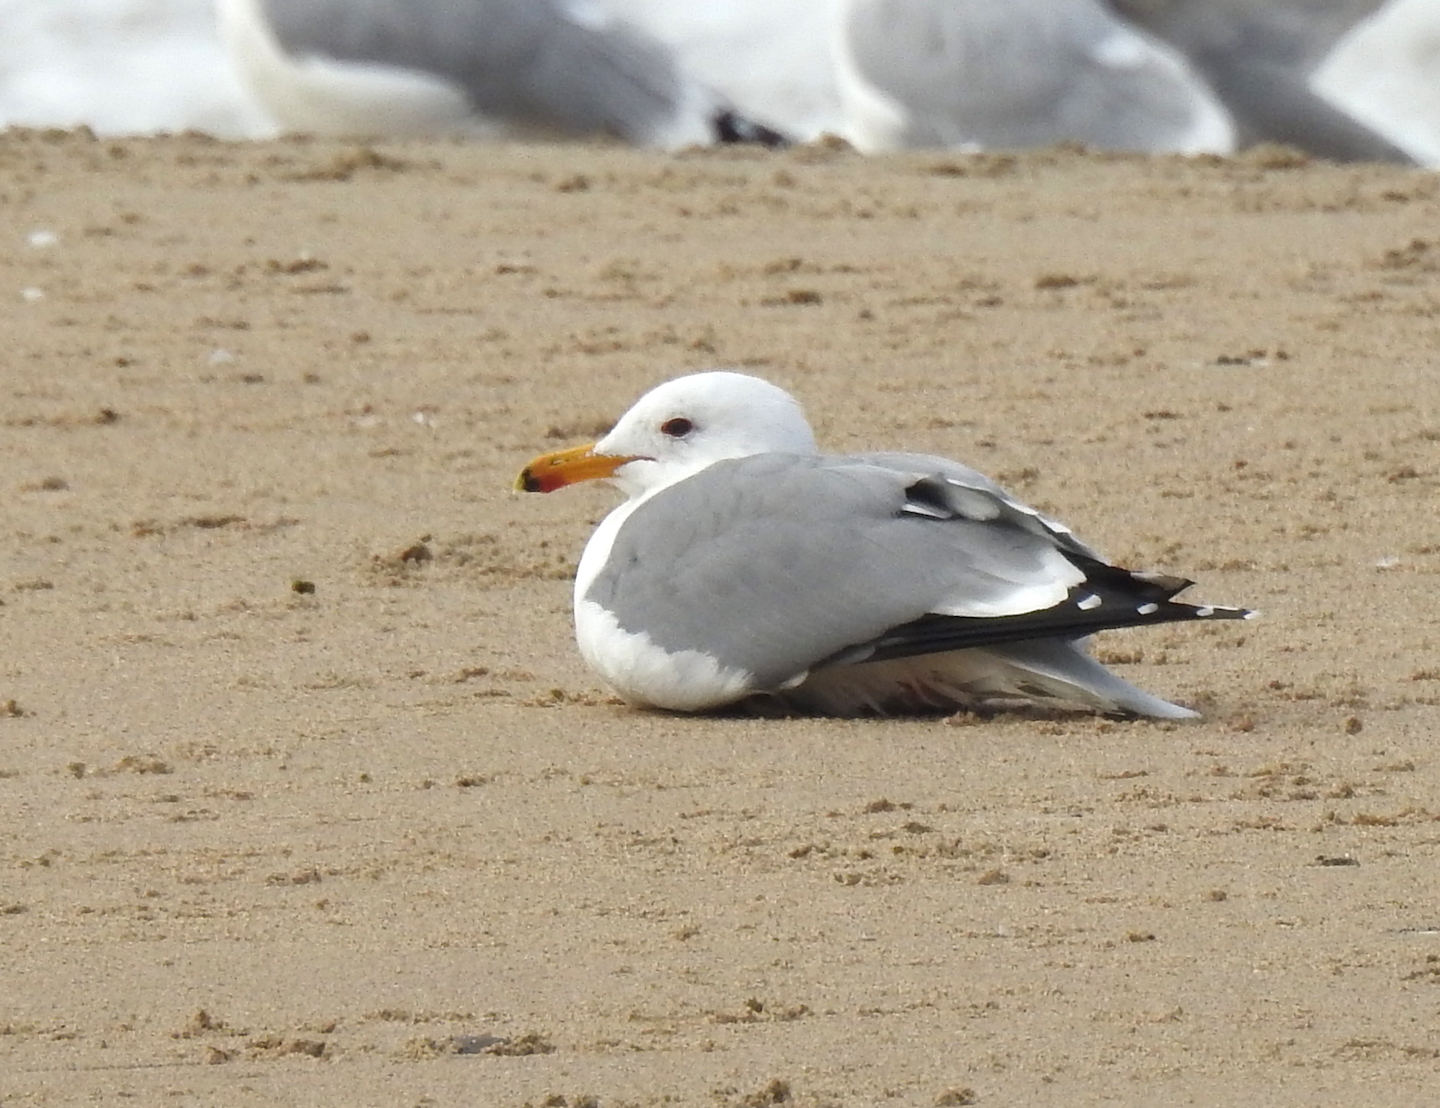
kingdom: Animalia
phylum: Chordata
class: Aves
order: Charadriiformes
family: Laridae
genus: Larus
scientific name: Larus californicus
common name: California gull
